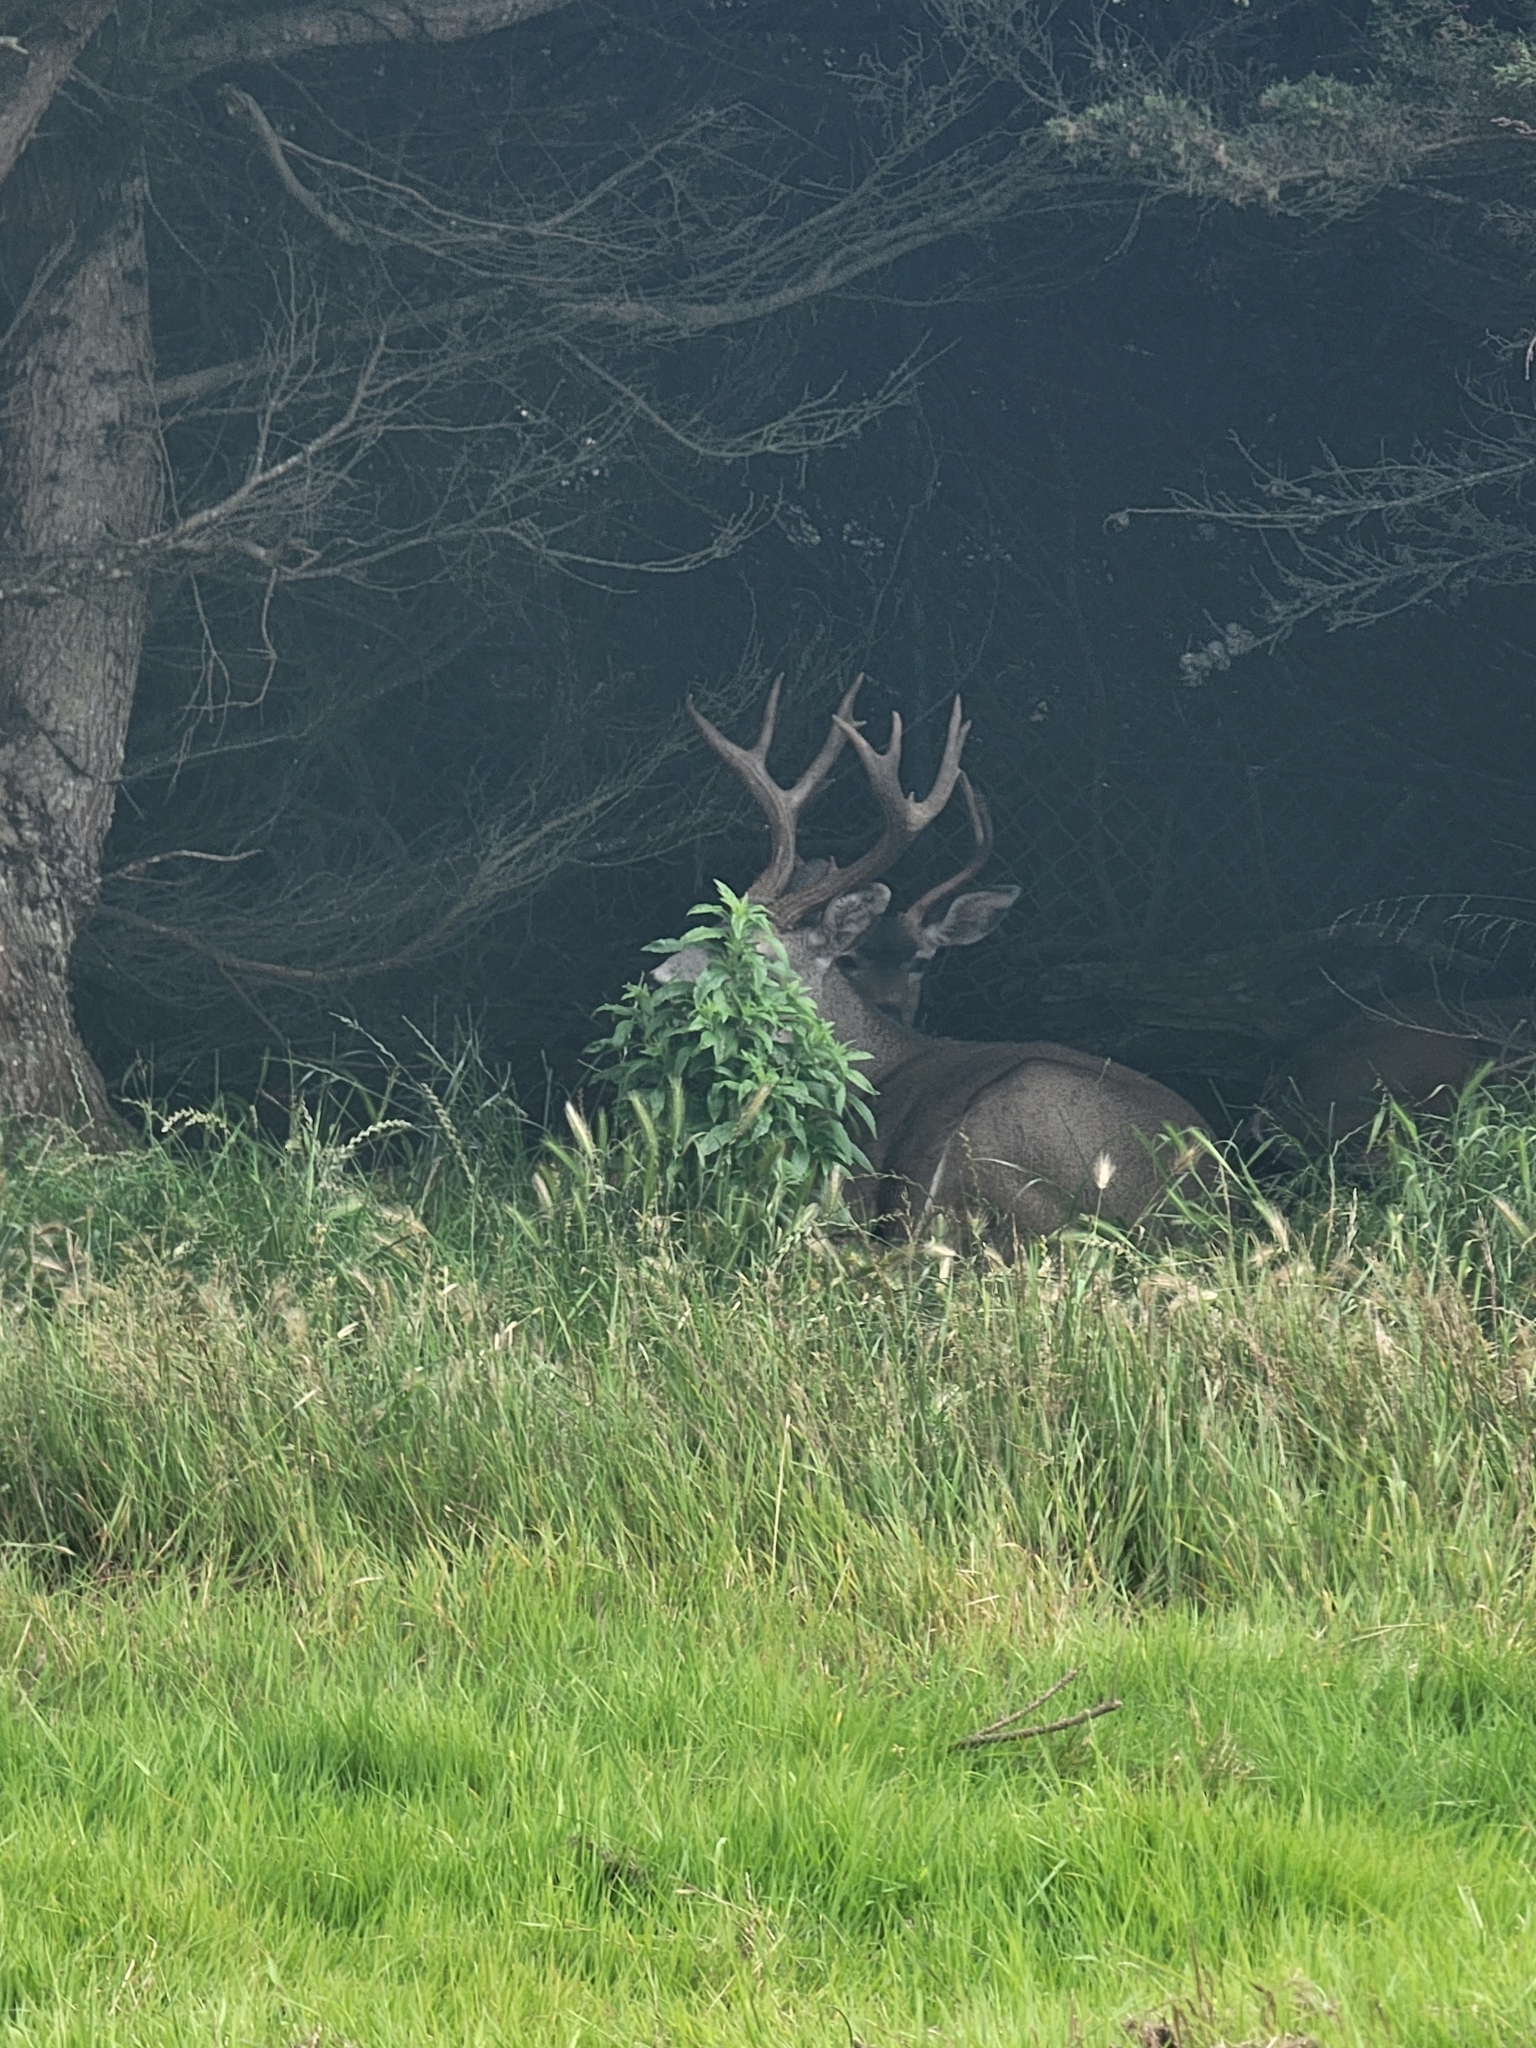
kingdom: Animalia
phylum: Chordata
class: Mammalia
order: Artiodactyla
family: Cervidae
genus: Odocoileus
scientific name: Odocoileus hemionus
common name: Mule deer
